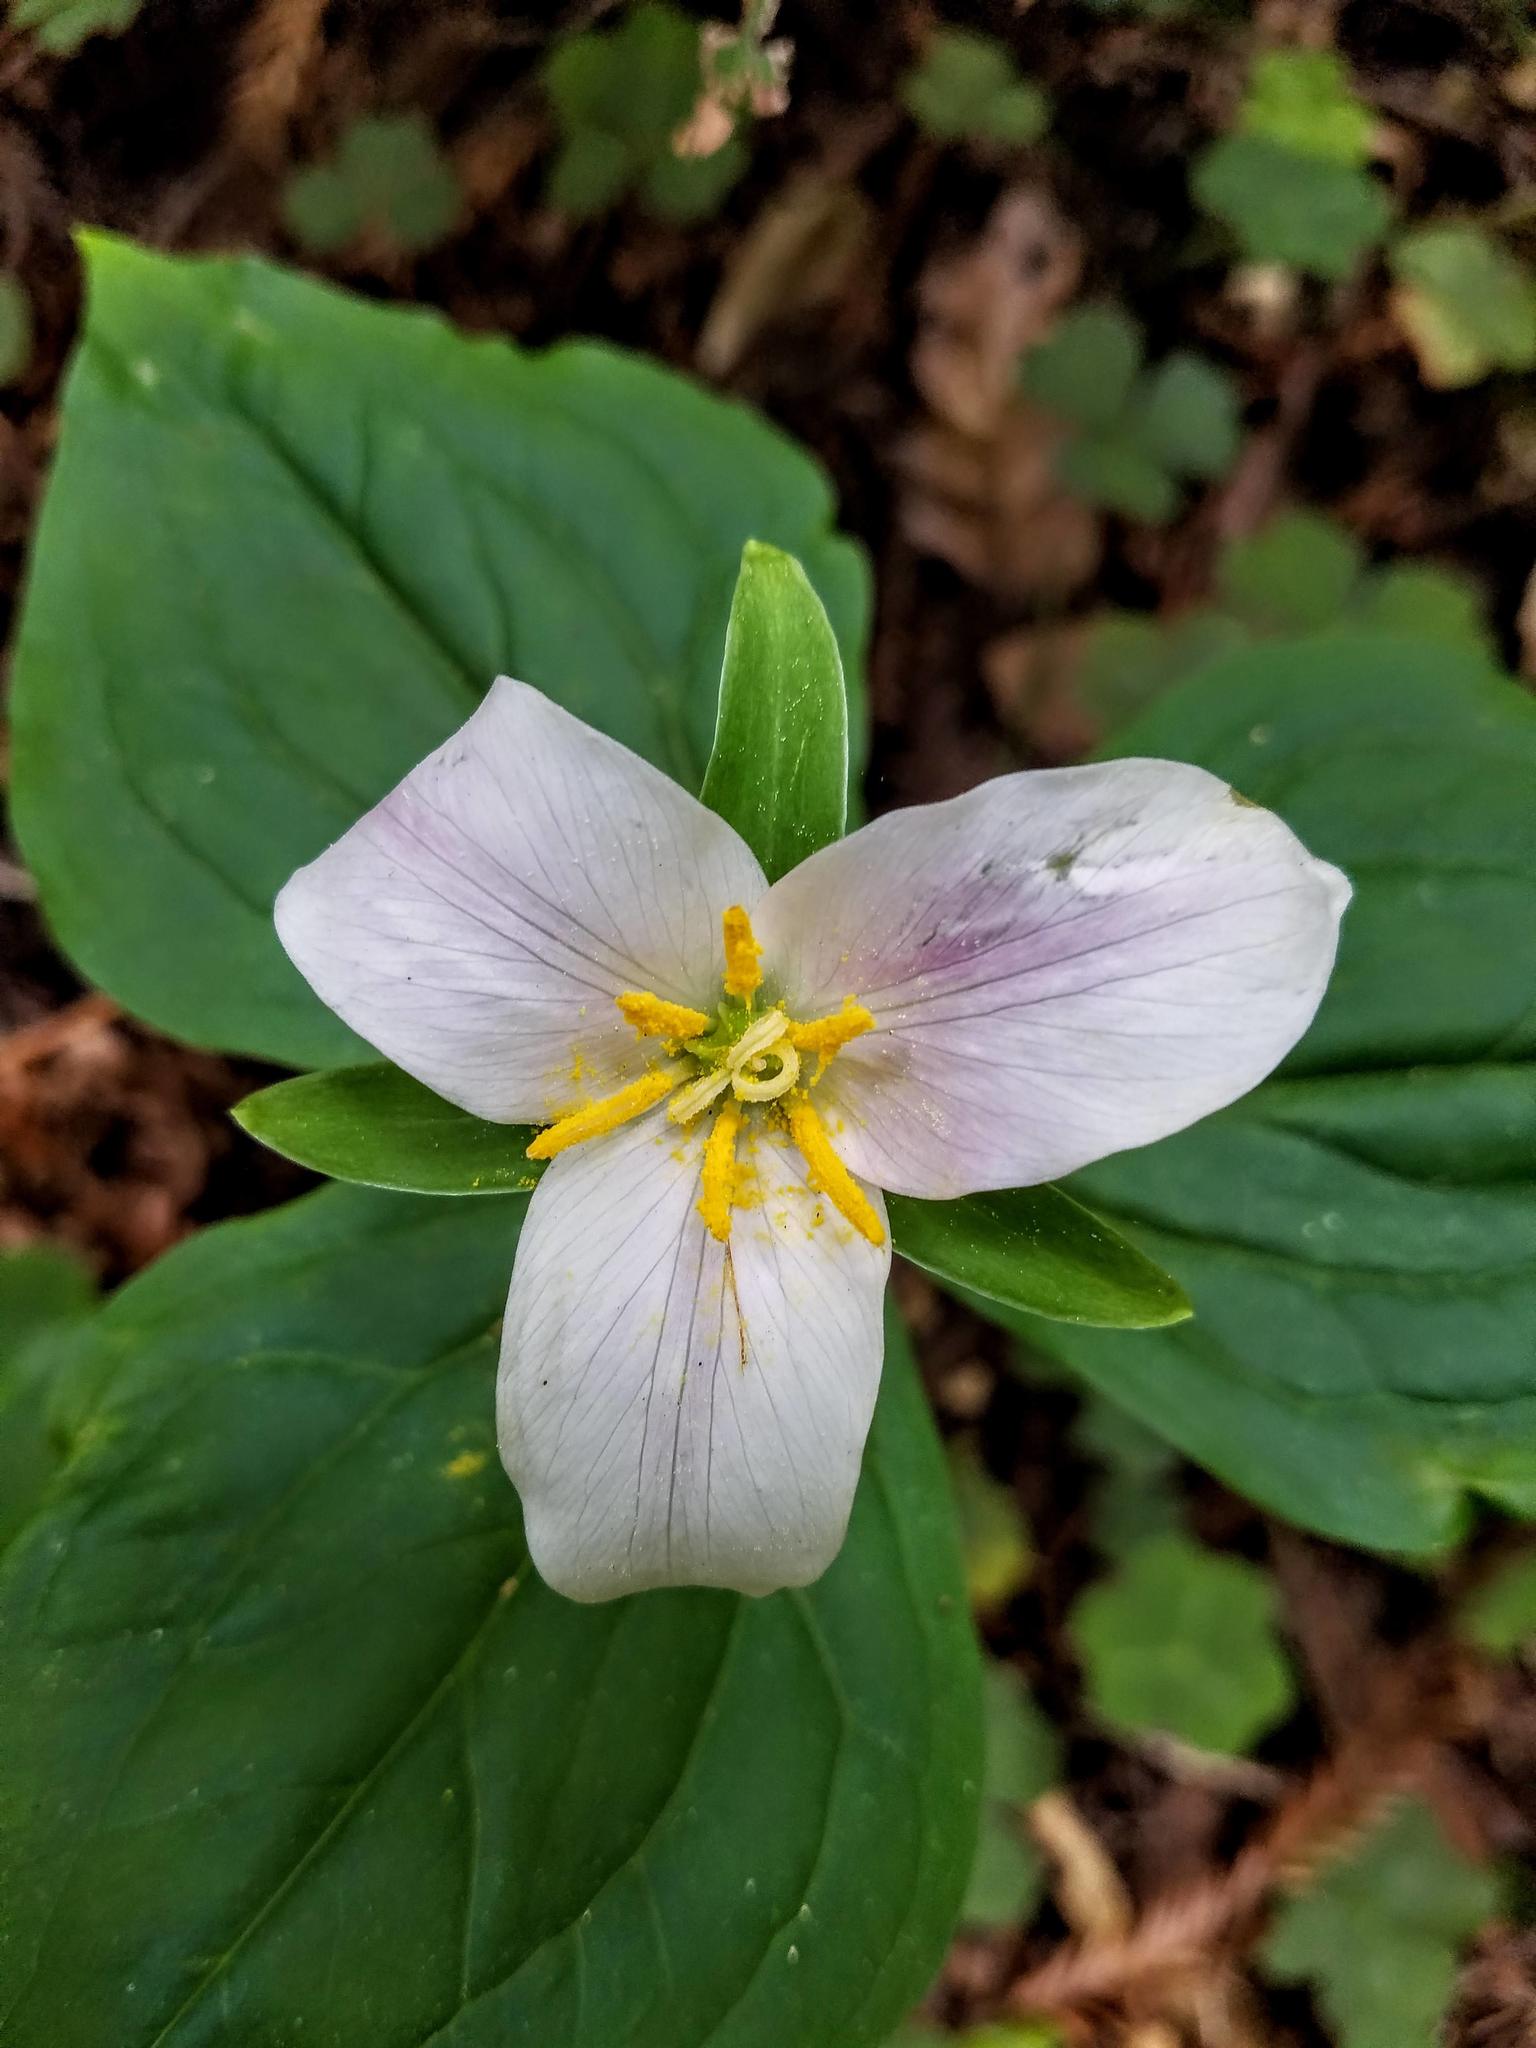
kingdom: Plantae
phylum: Tracheophyta
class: Liliopsida
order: Liliales
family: Melanthiaceae
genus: Trillium
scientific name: Trillium ovatum
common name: Pacific trillium
